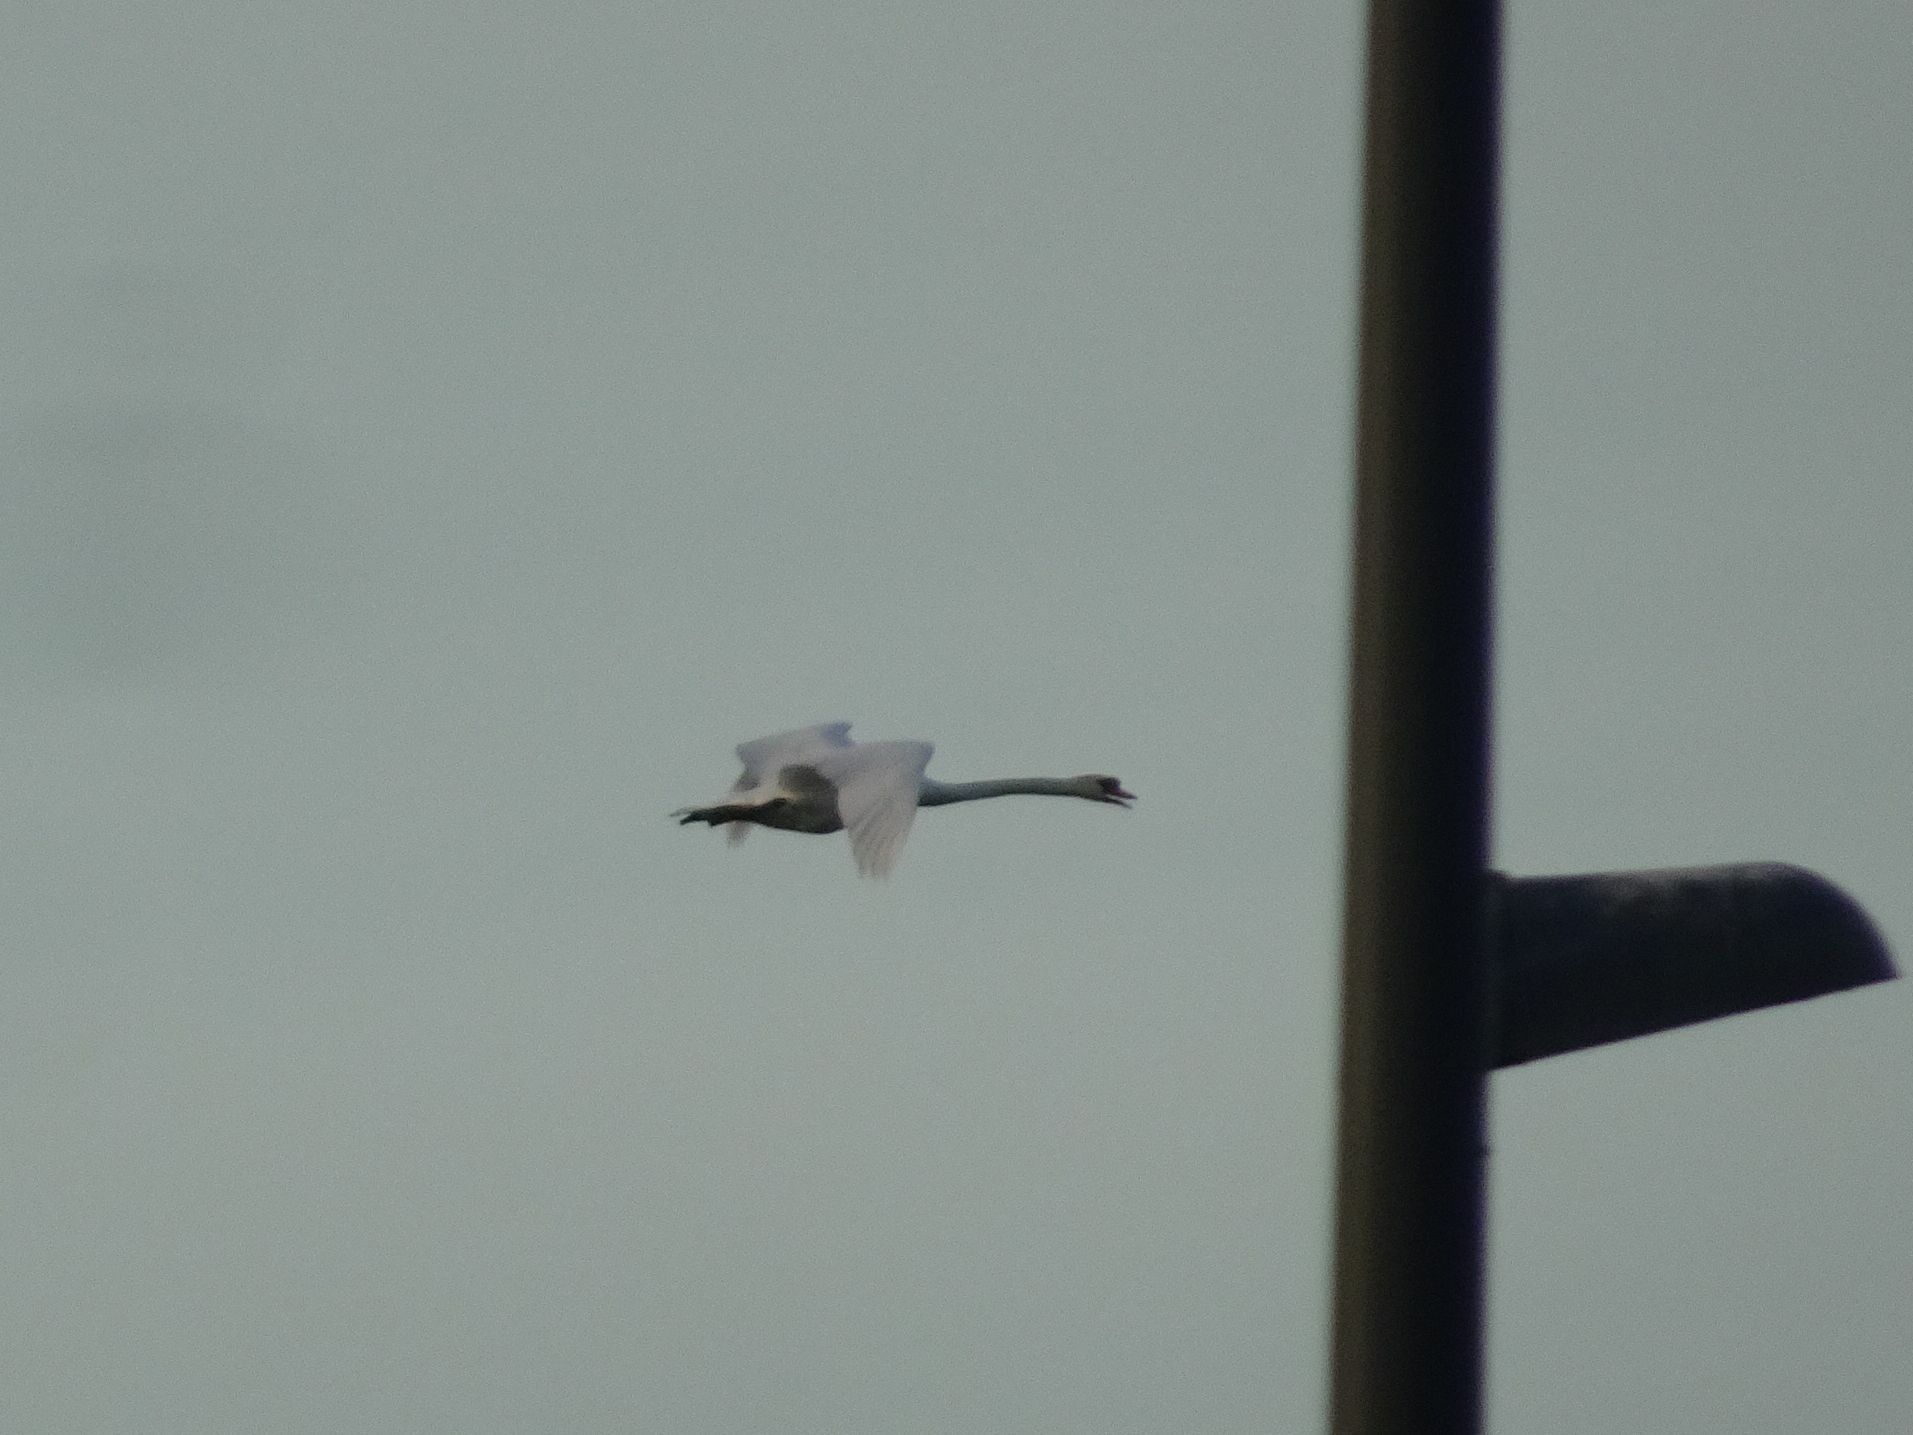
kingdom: Animalia
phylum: Chordata
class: Aves
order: Anseriformes
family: Anatidae
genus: Cygnus
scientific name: Cygnus olor
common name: Mute swan
